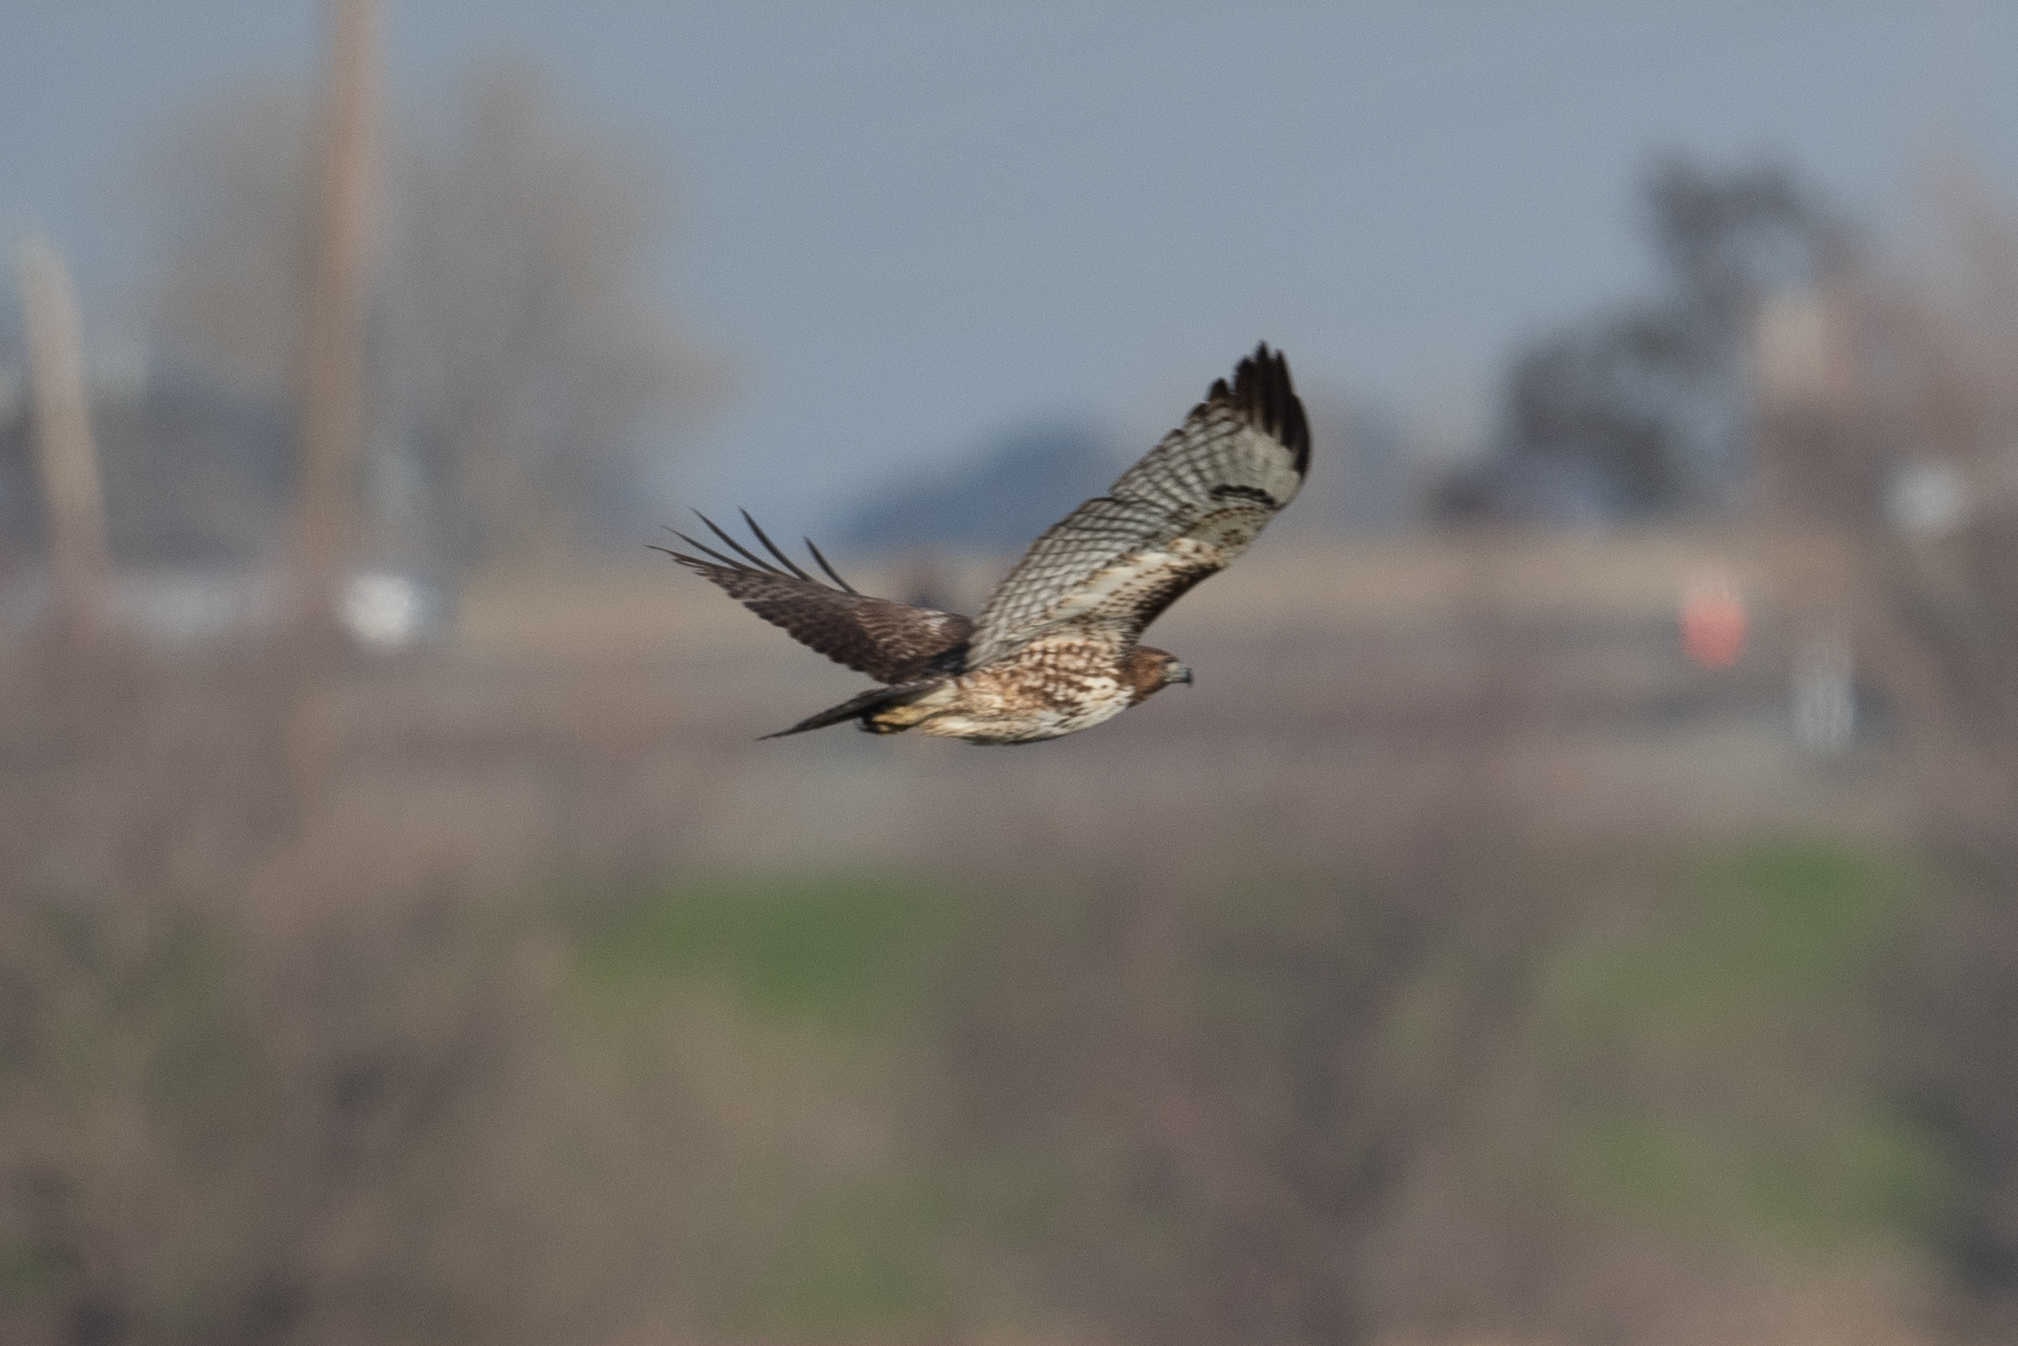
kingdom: Animalia
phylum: Chordata
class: Aves
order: Accipitriformes
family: Accipitridae
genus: Buteo
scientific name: Buteo jamaicensis
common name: Red-tailed hawk
